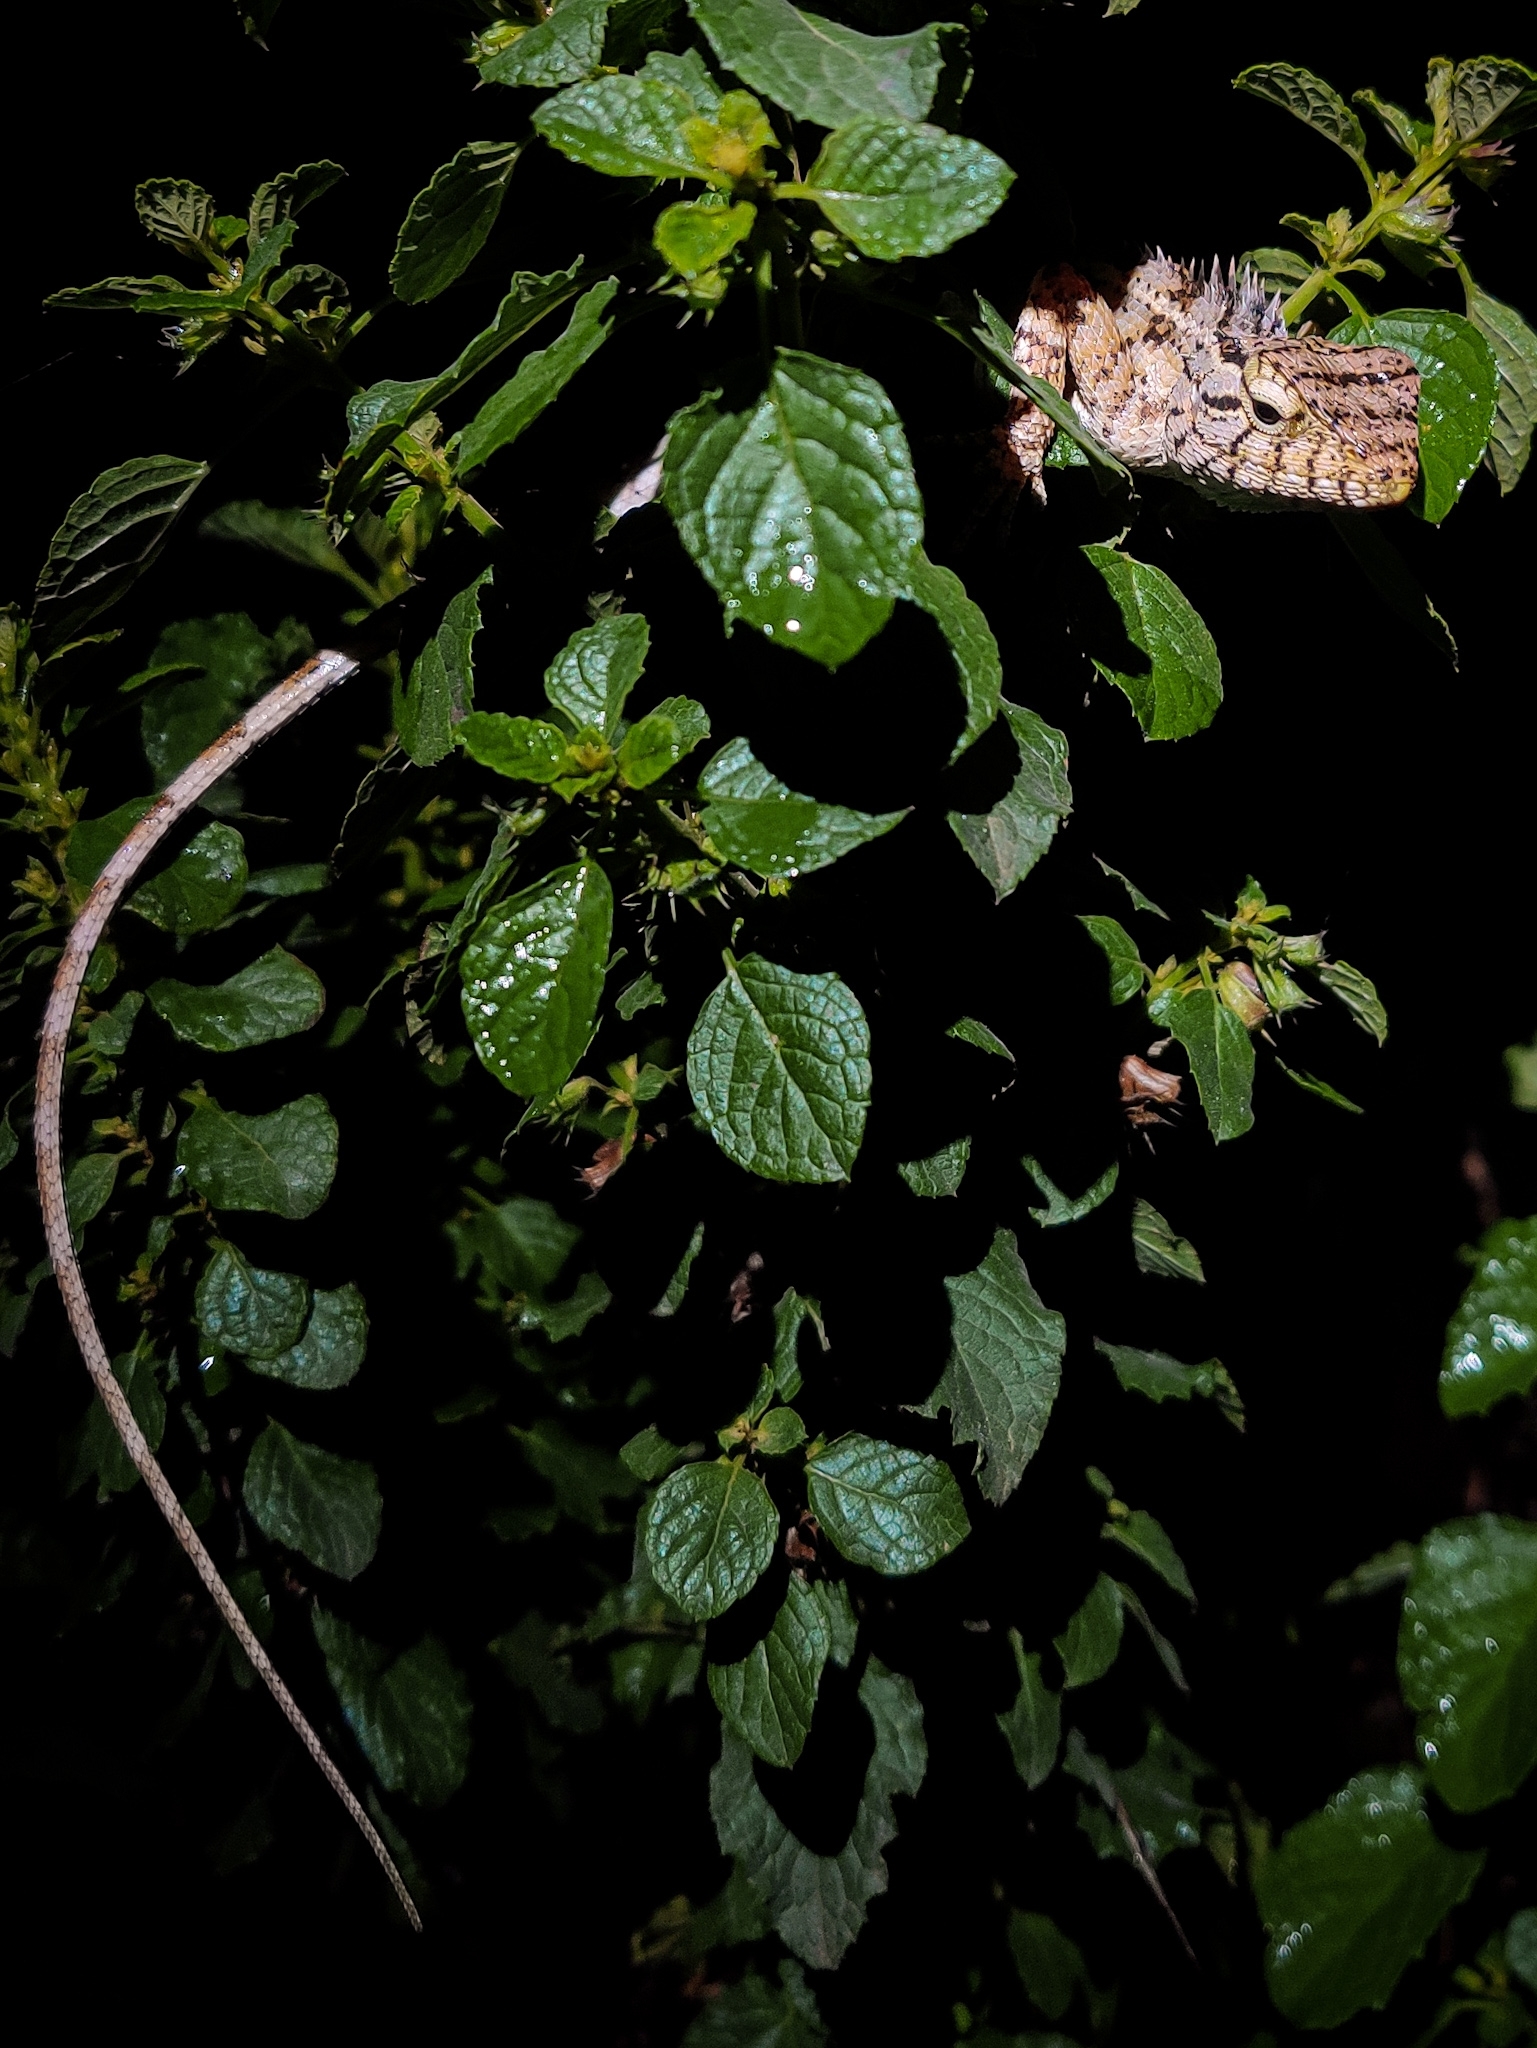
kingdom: Animalia
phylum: Chordata
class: Squamata
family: Agamidae
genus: Calotes
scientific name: Calotes versicolor
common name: Oriental garden lizard
